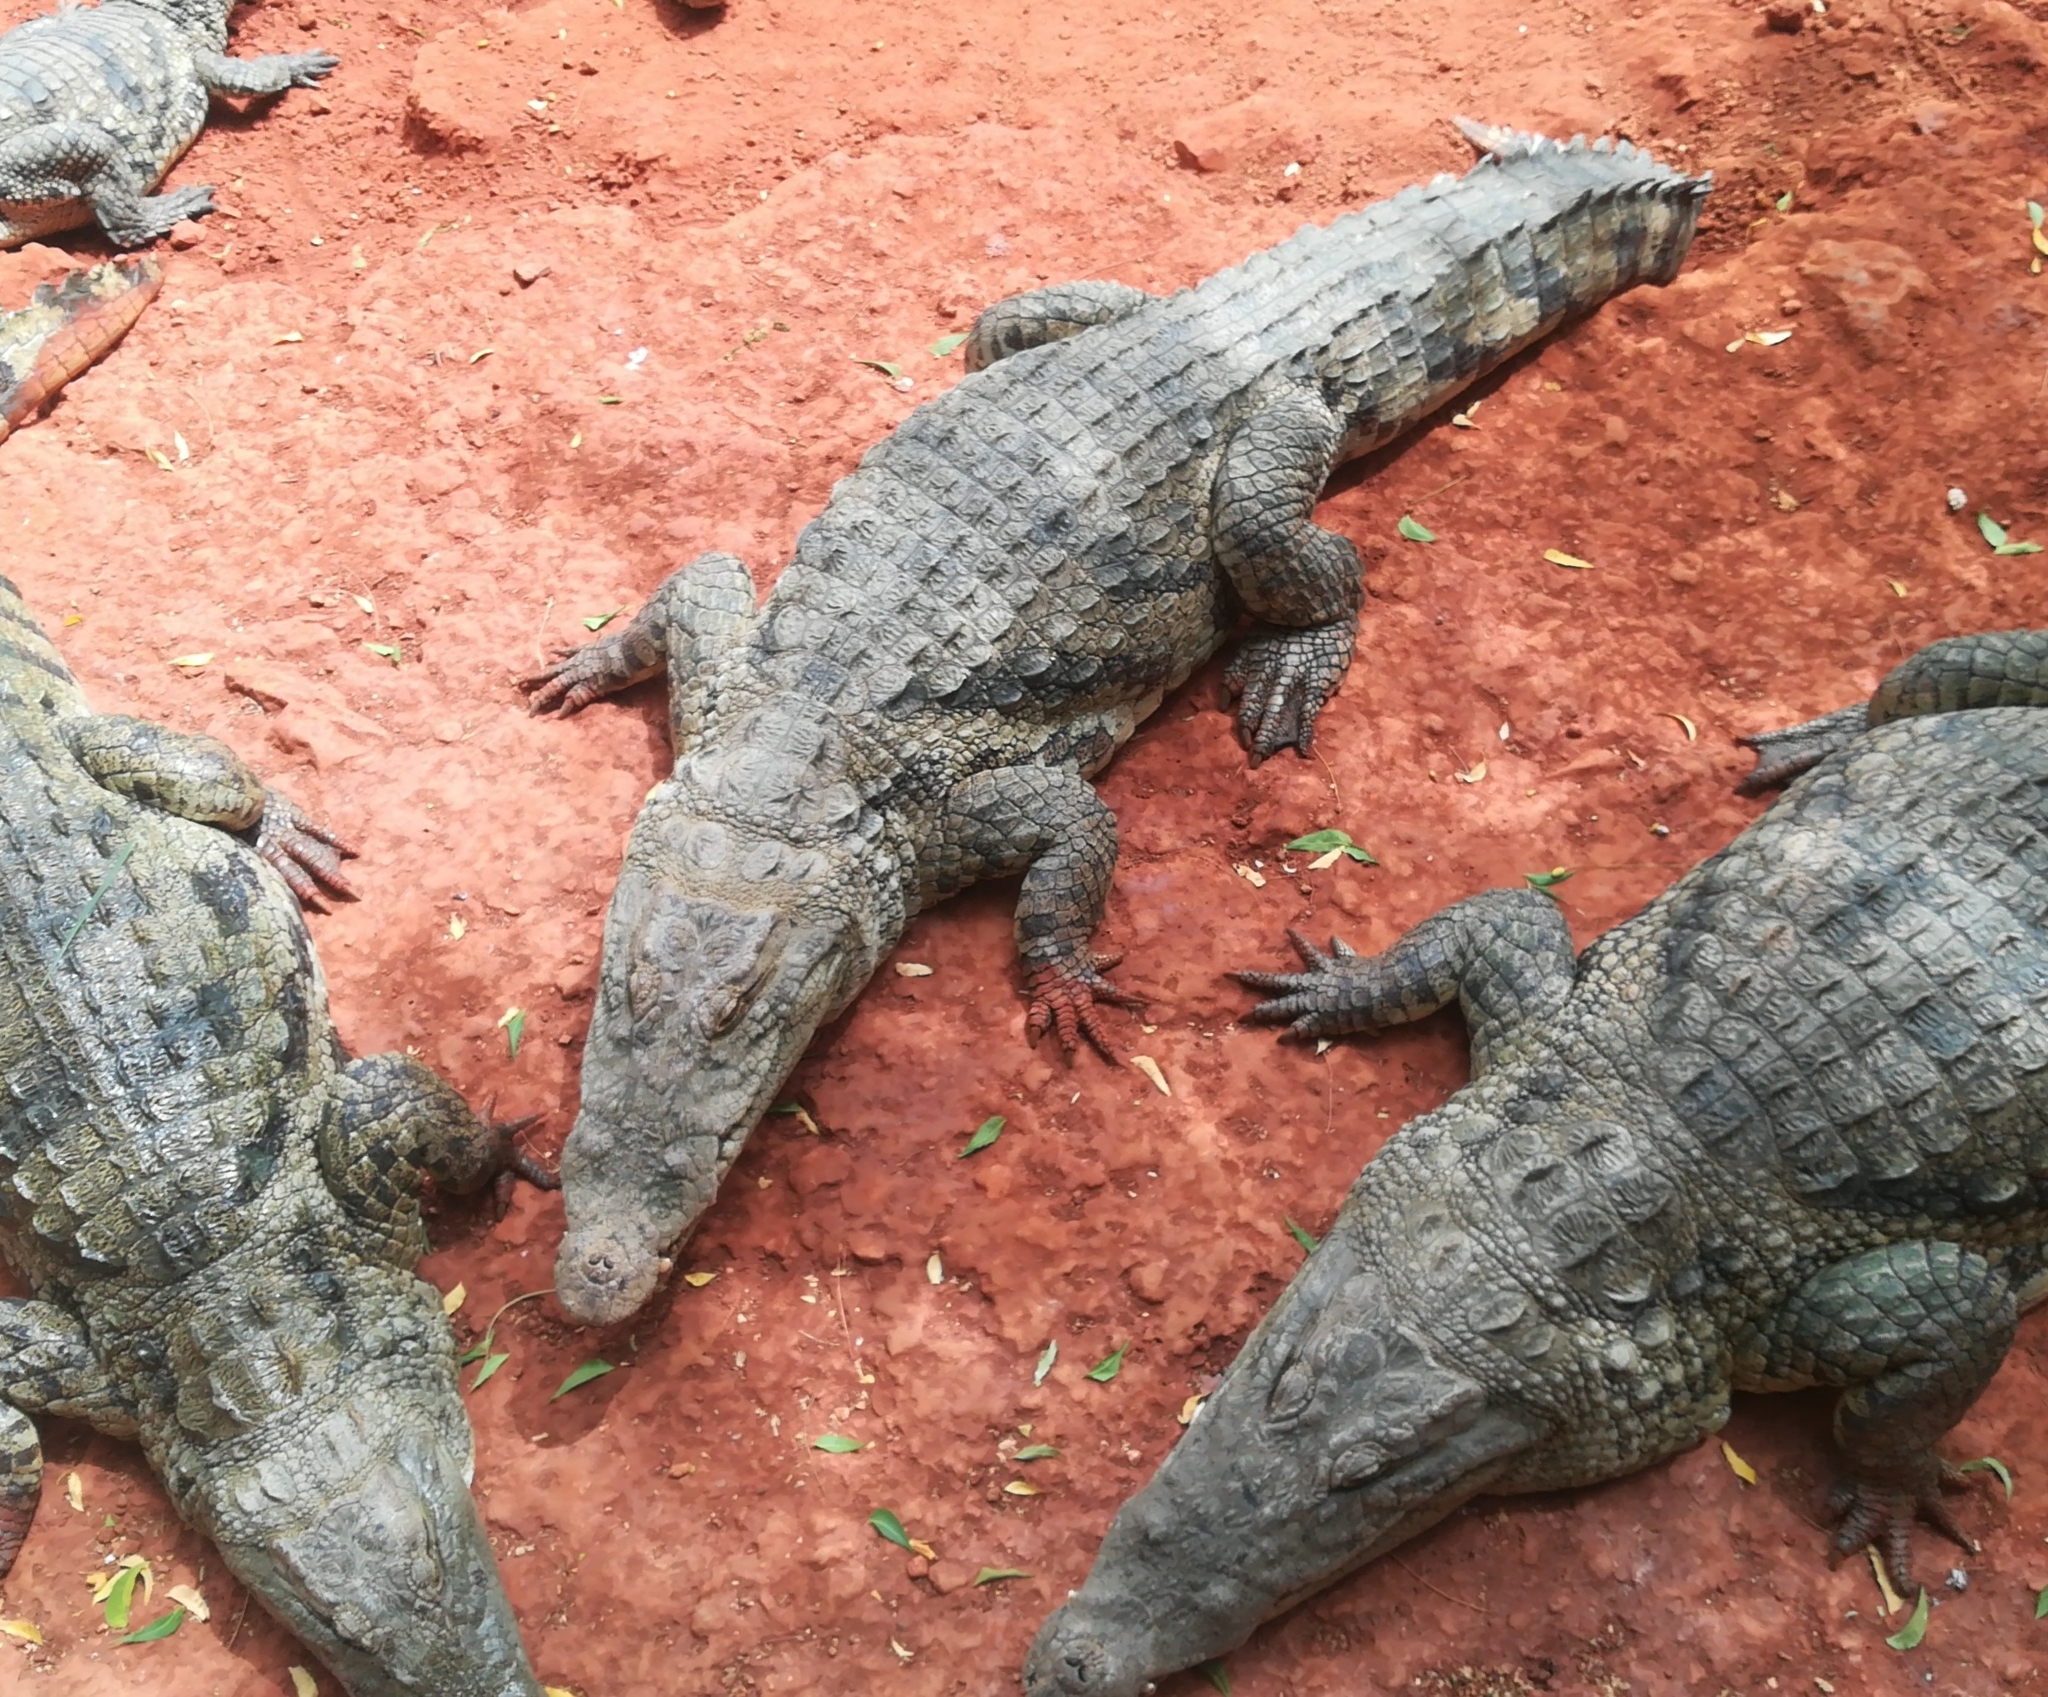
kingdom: Animalia
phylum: Chordata
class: Crocodylia
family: Crocodylidae
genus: Crocodylus
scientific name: Crocodylus suchus
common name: West african crocodile
